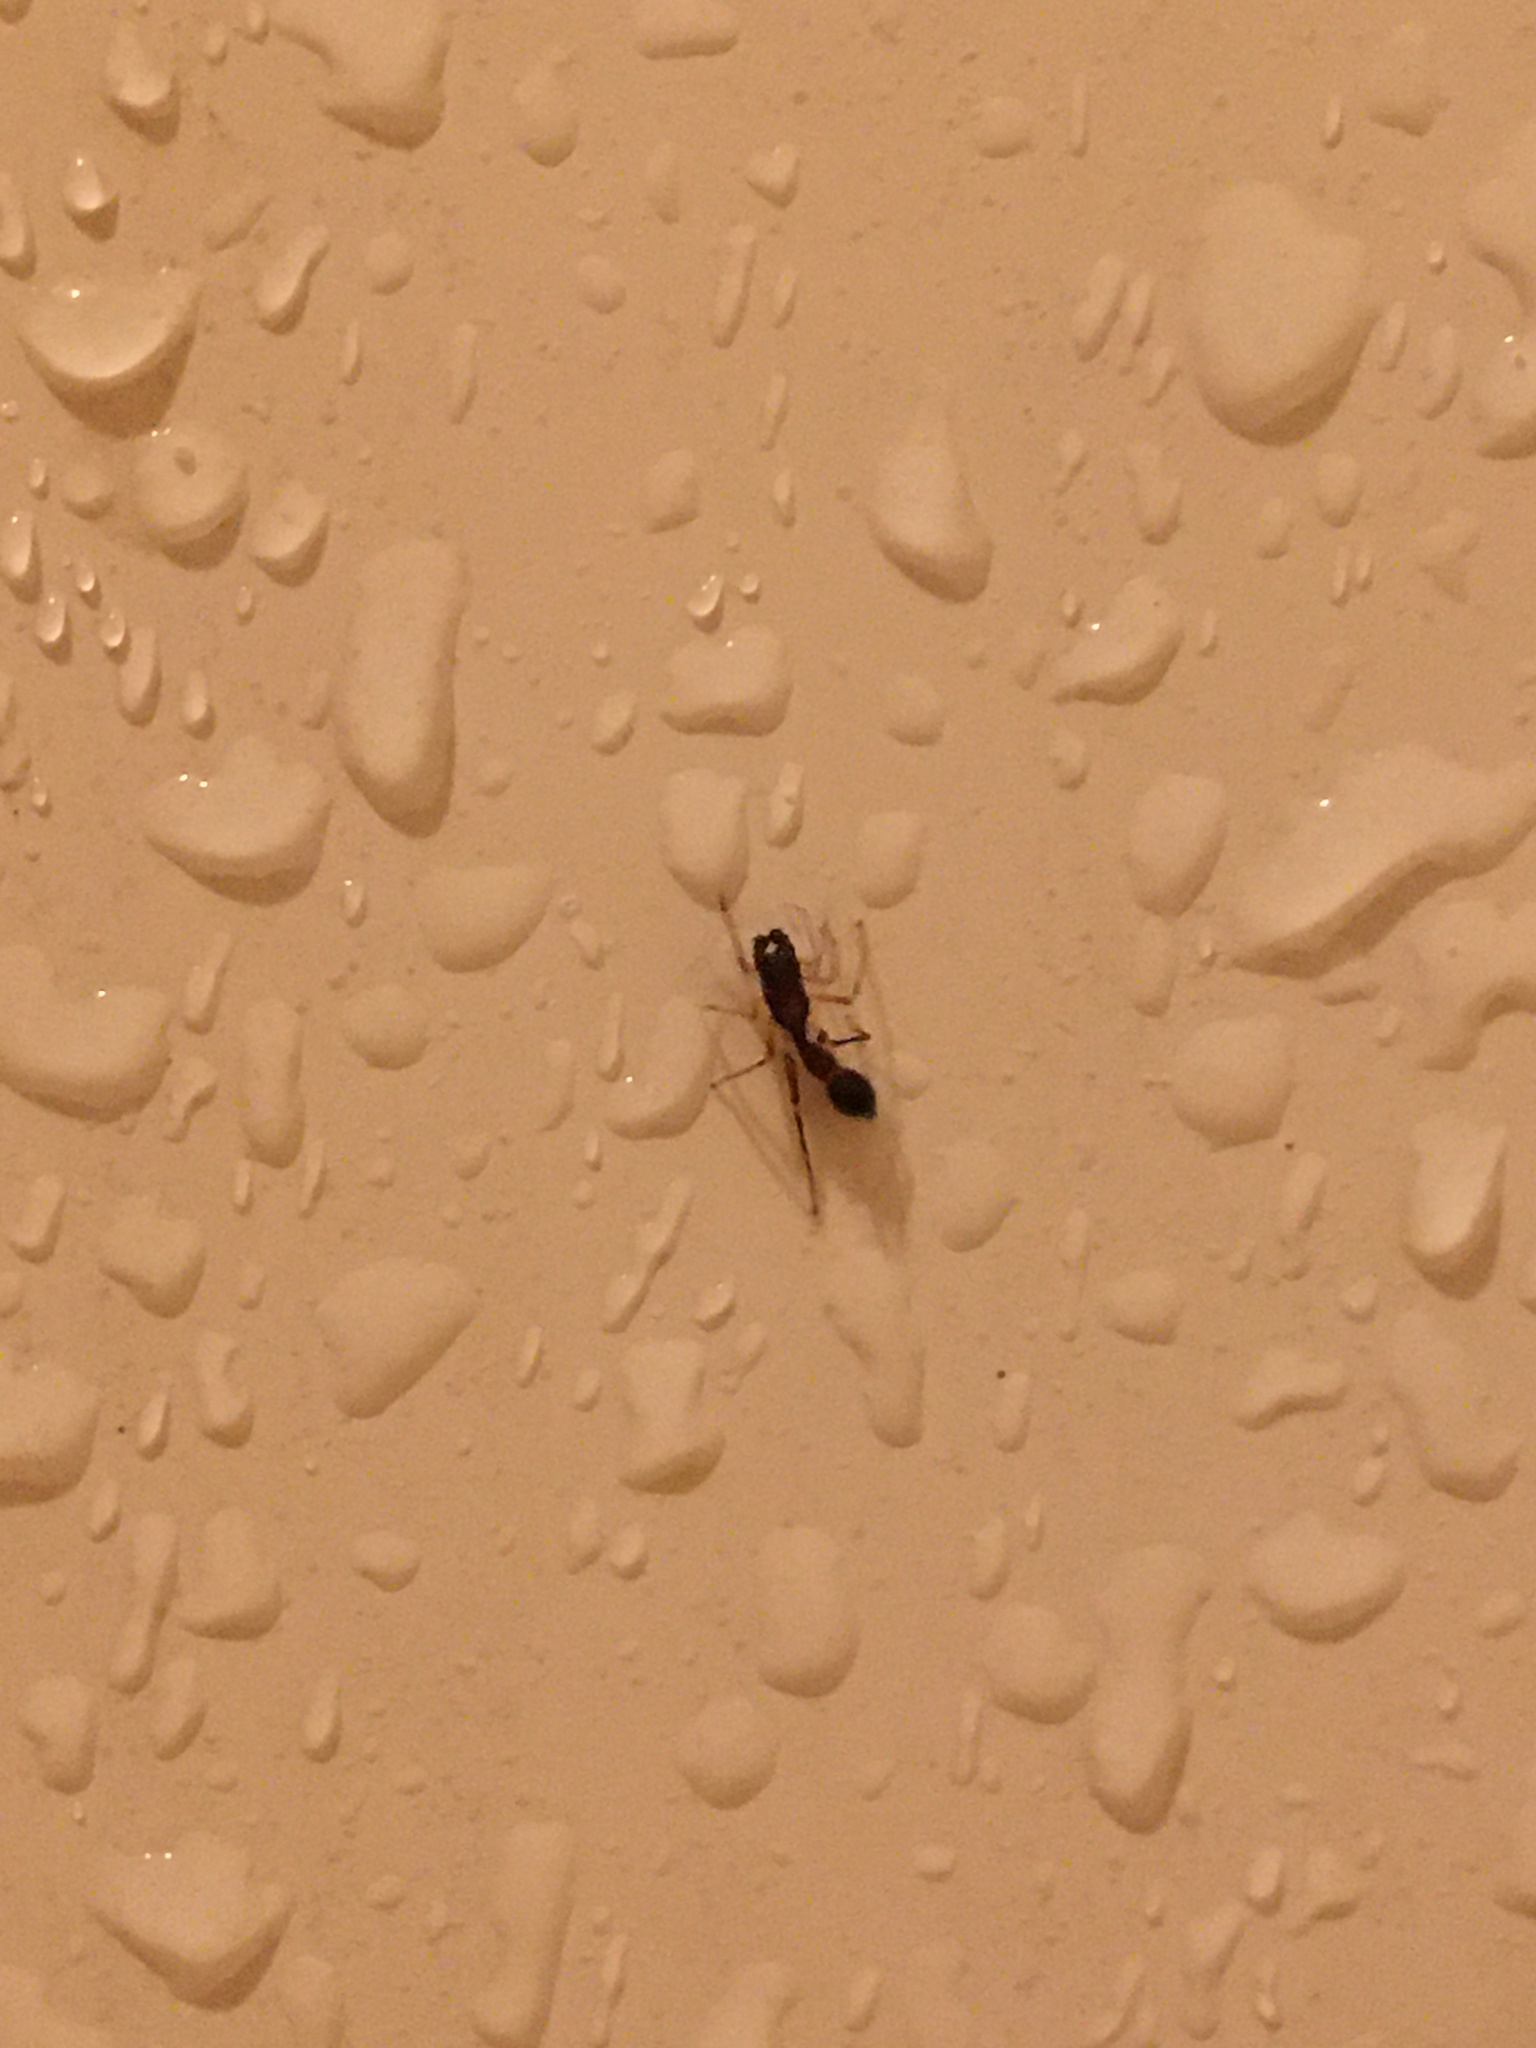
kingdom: Animalia
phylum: Arthropoda
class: Arachnida
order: Araneae
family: Salticidae
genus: Synemosyna
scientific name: Synemosyna formica
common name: Slender ant-mimic jumping spider
